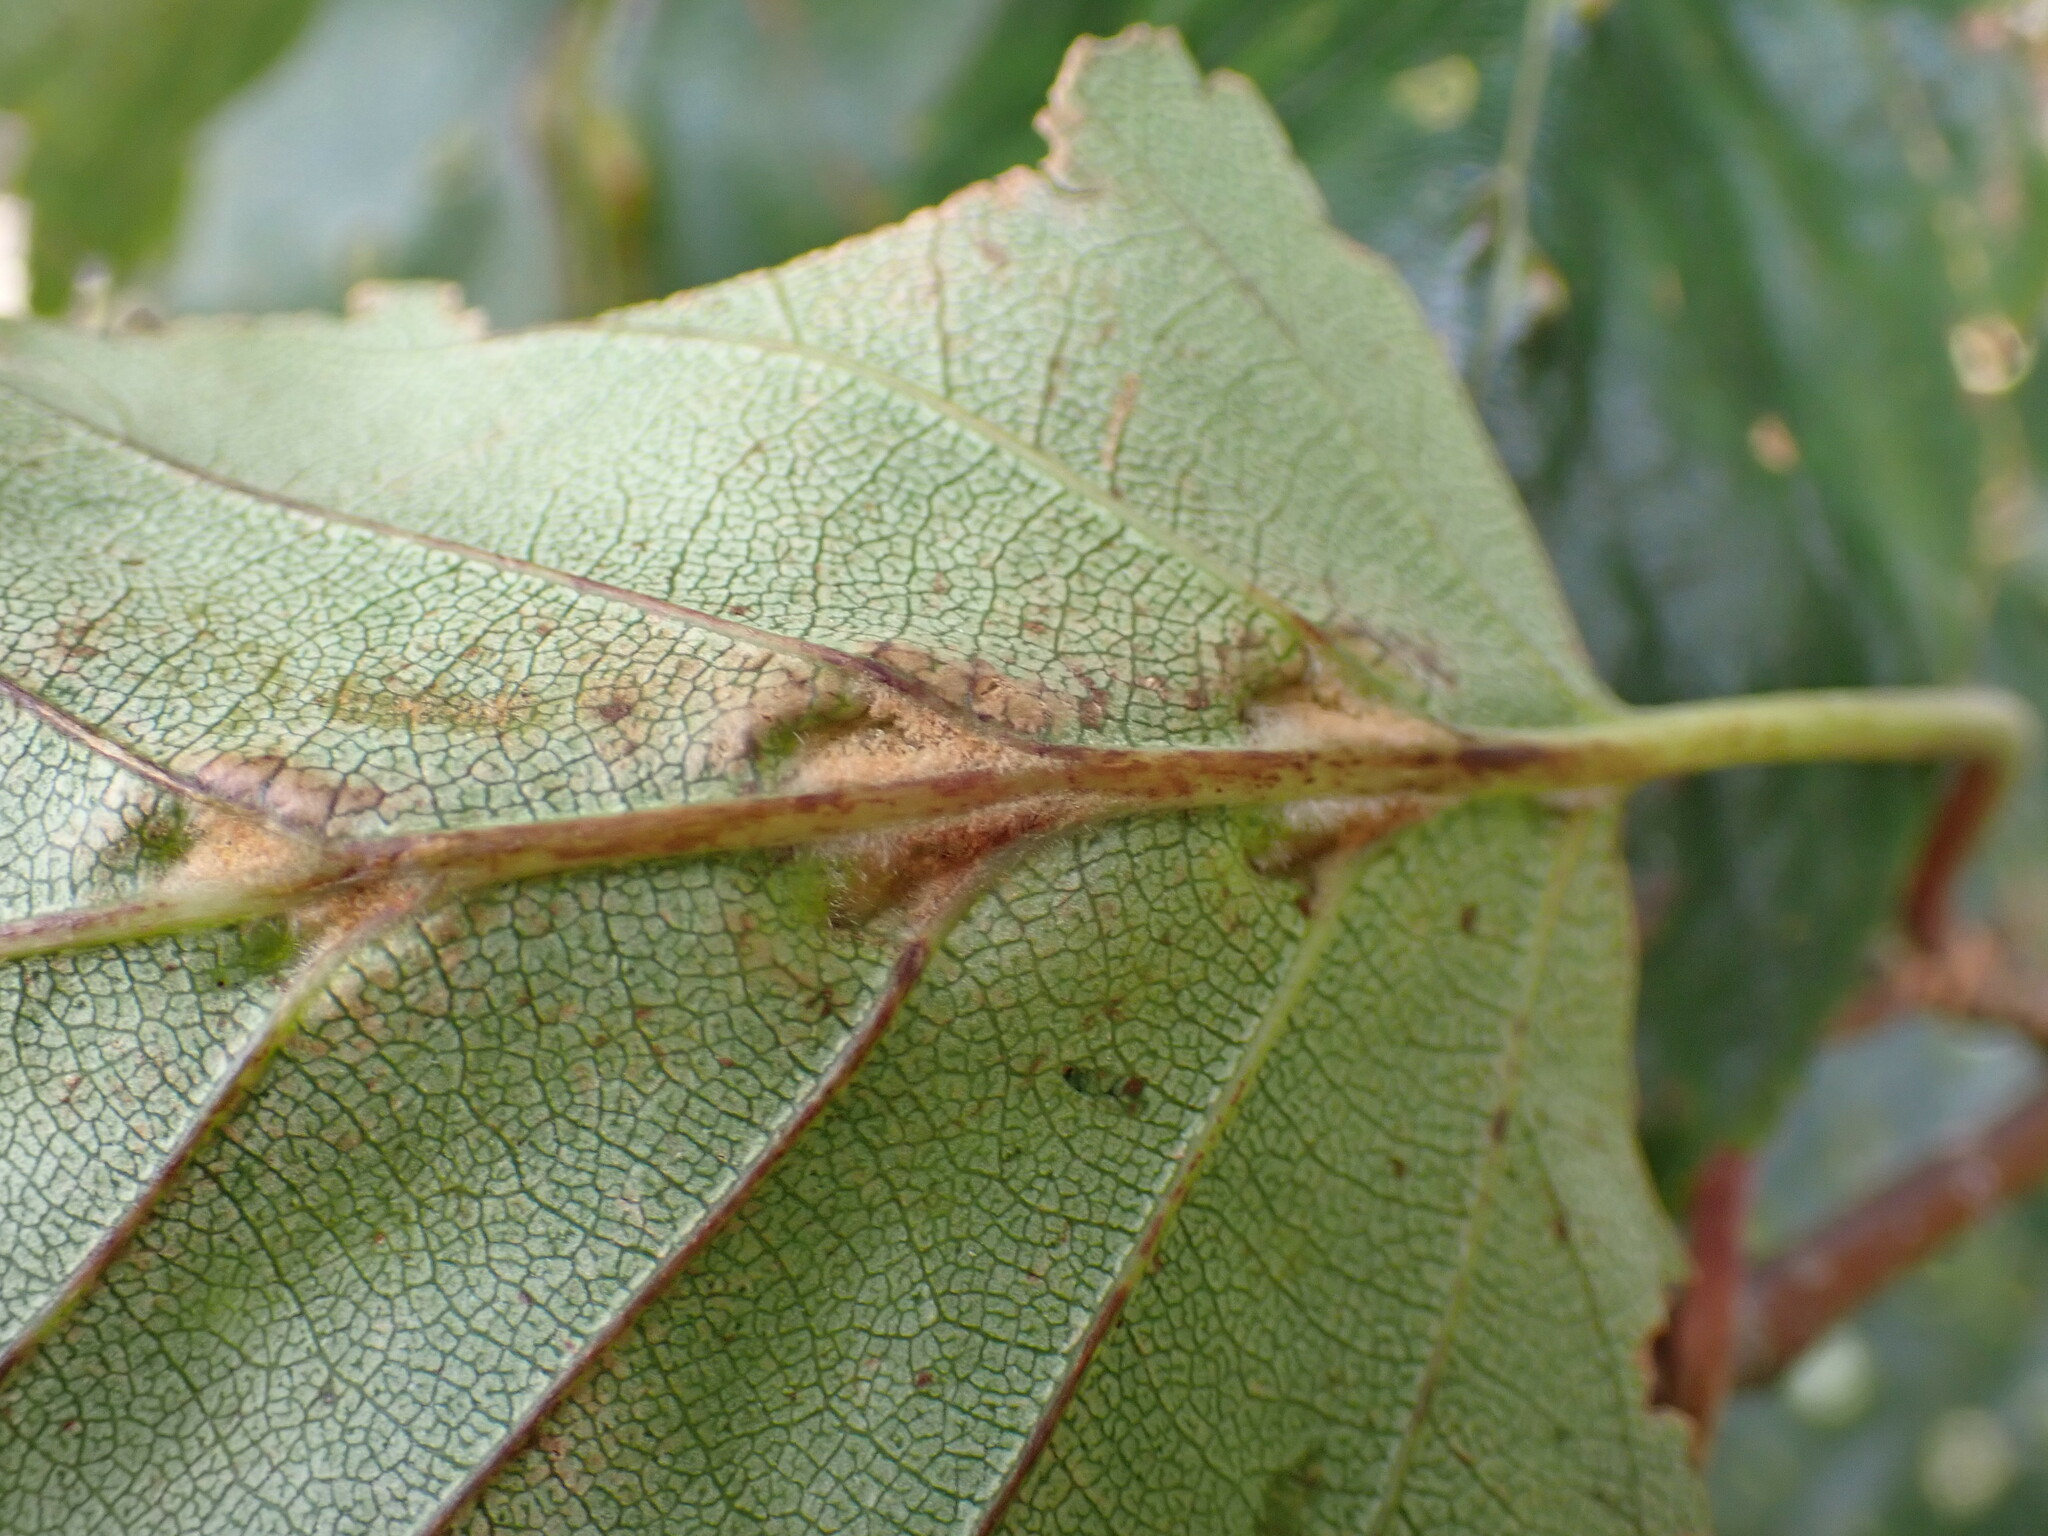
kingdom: Animalia
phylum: Arthropoda
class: Arachnida
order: Trombidiformes
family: Eriophyidae
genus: Aculus
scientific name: Aculus leionotus
